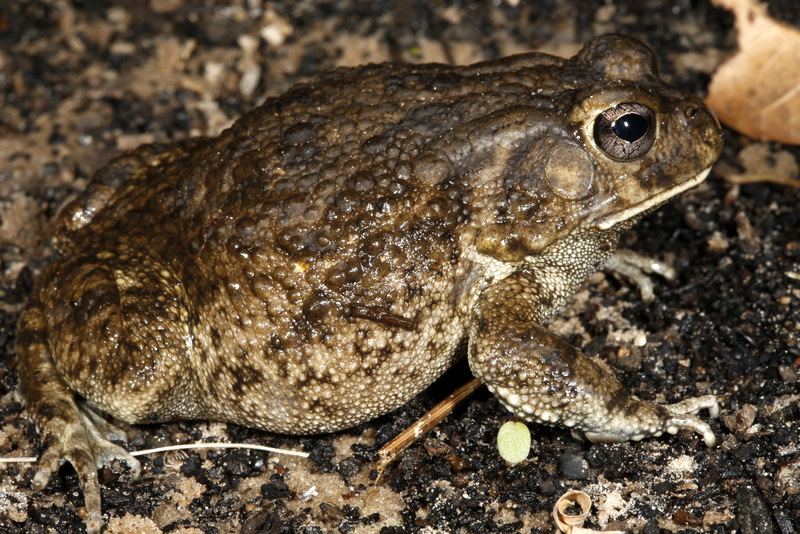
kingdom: Animalia
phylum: Chordata
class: Amphibia
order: Anura
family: Bufonidae
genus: Sclerophrys
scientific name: Sclerophrys pusilla
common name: Merten's striped toad
